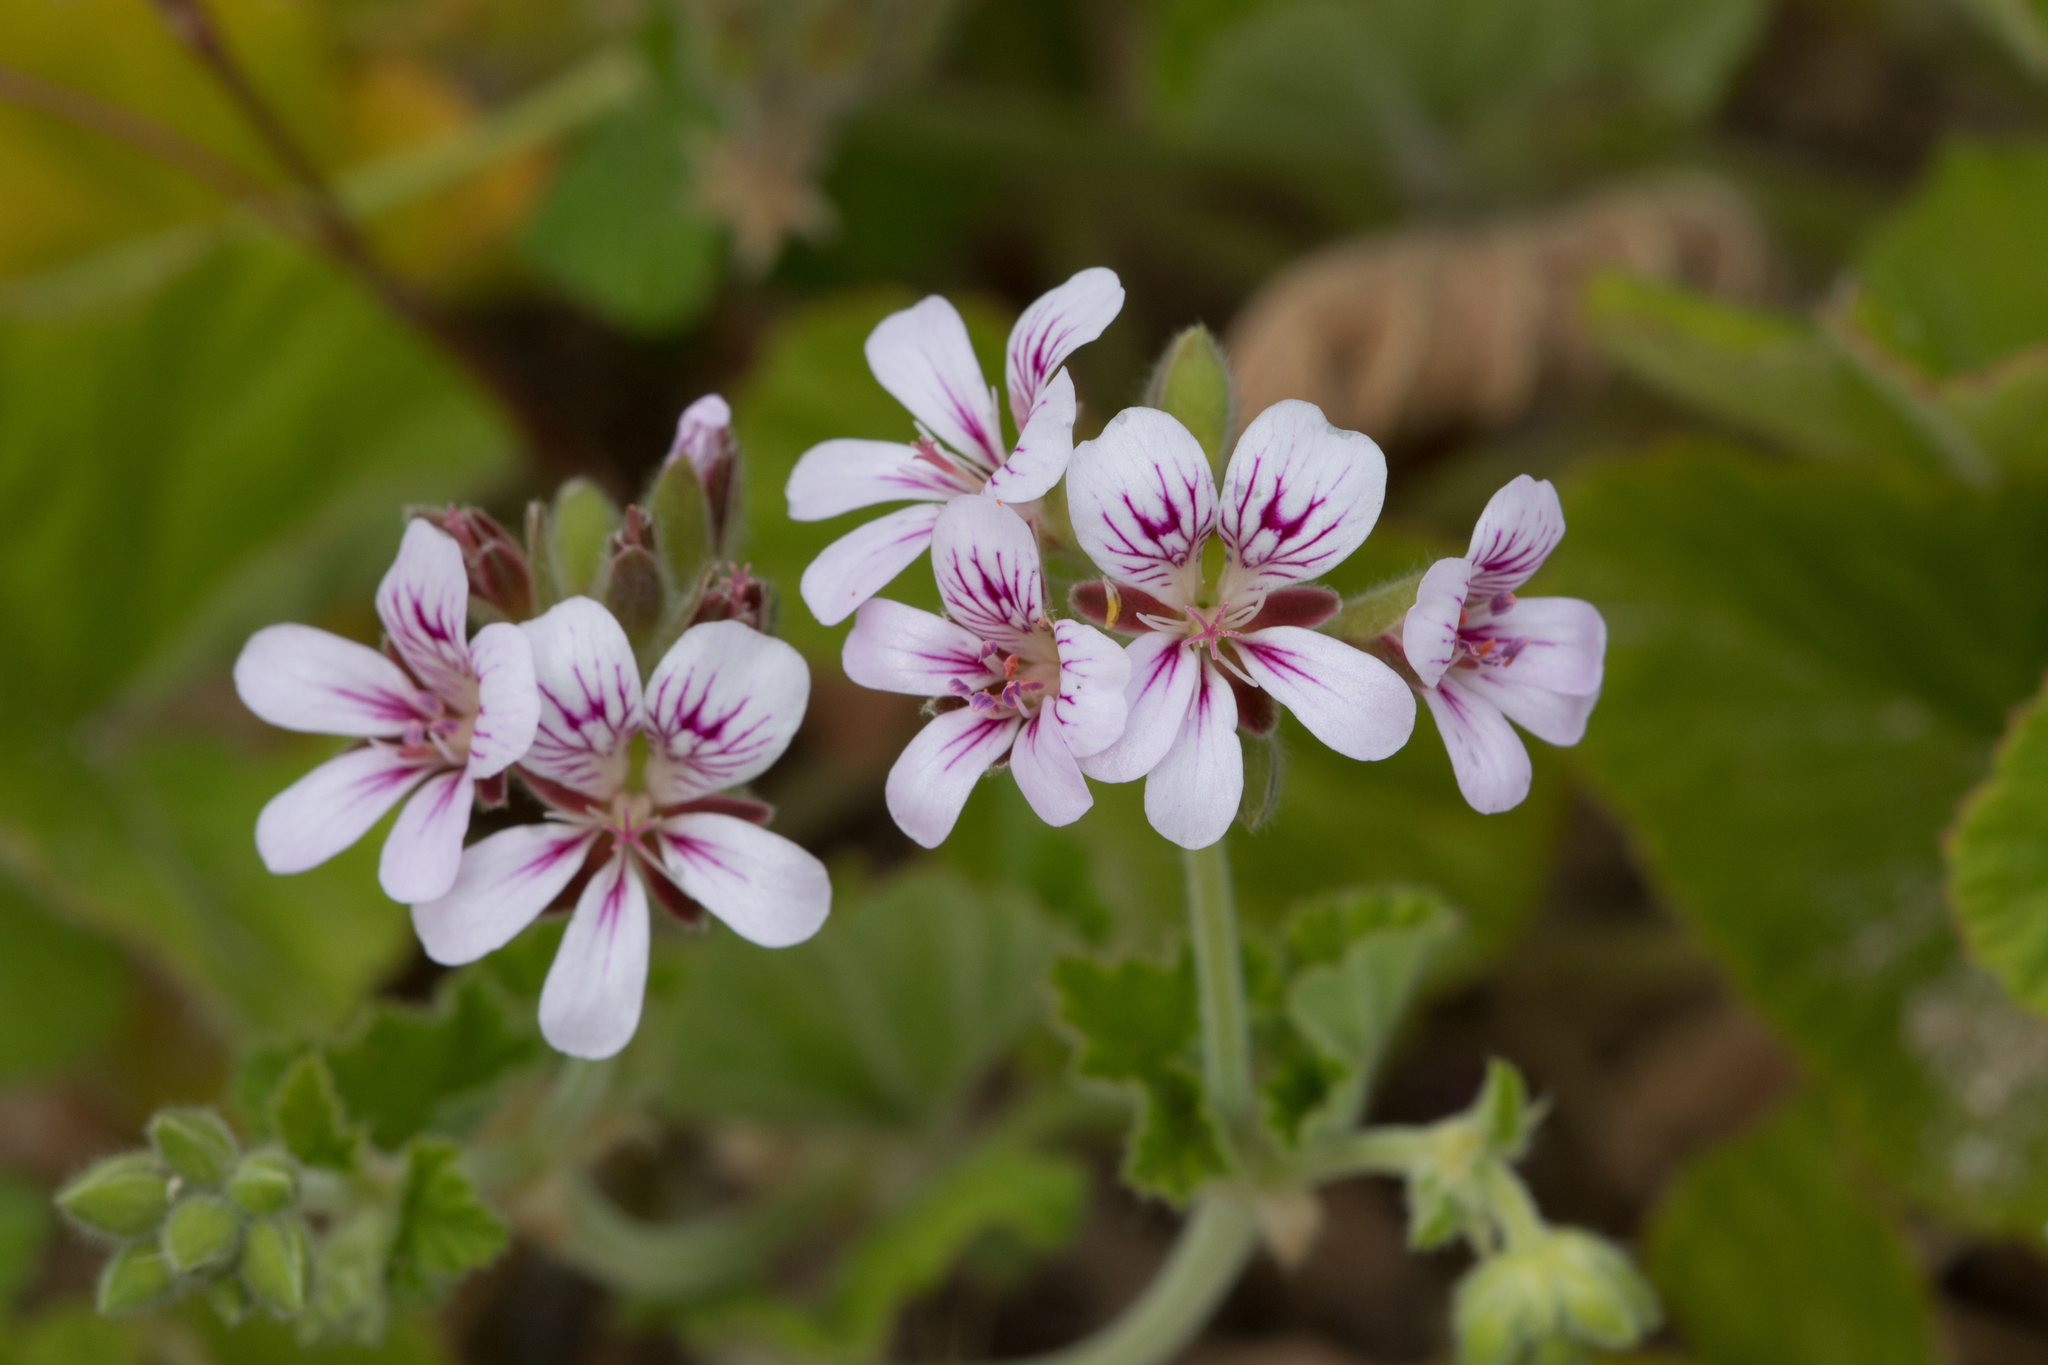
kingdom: Plantae
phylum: Tracheophyta
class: Magnoliopsida
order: Geraniales
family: Geraniaceae
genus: Pelargonium
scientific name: Pelargonium australe
